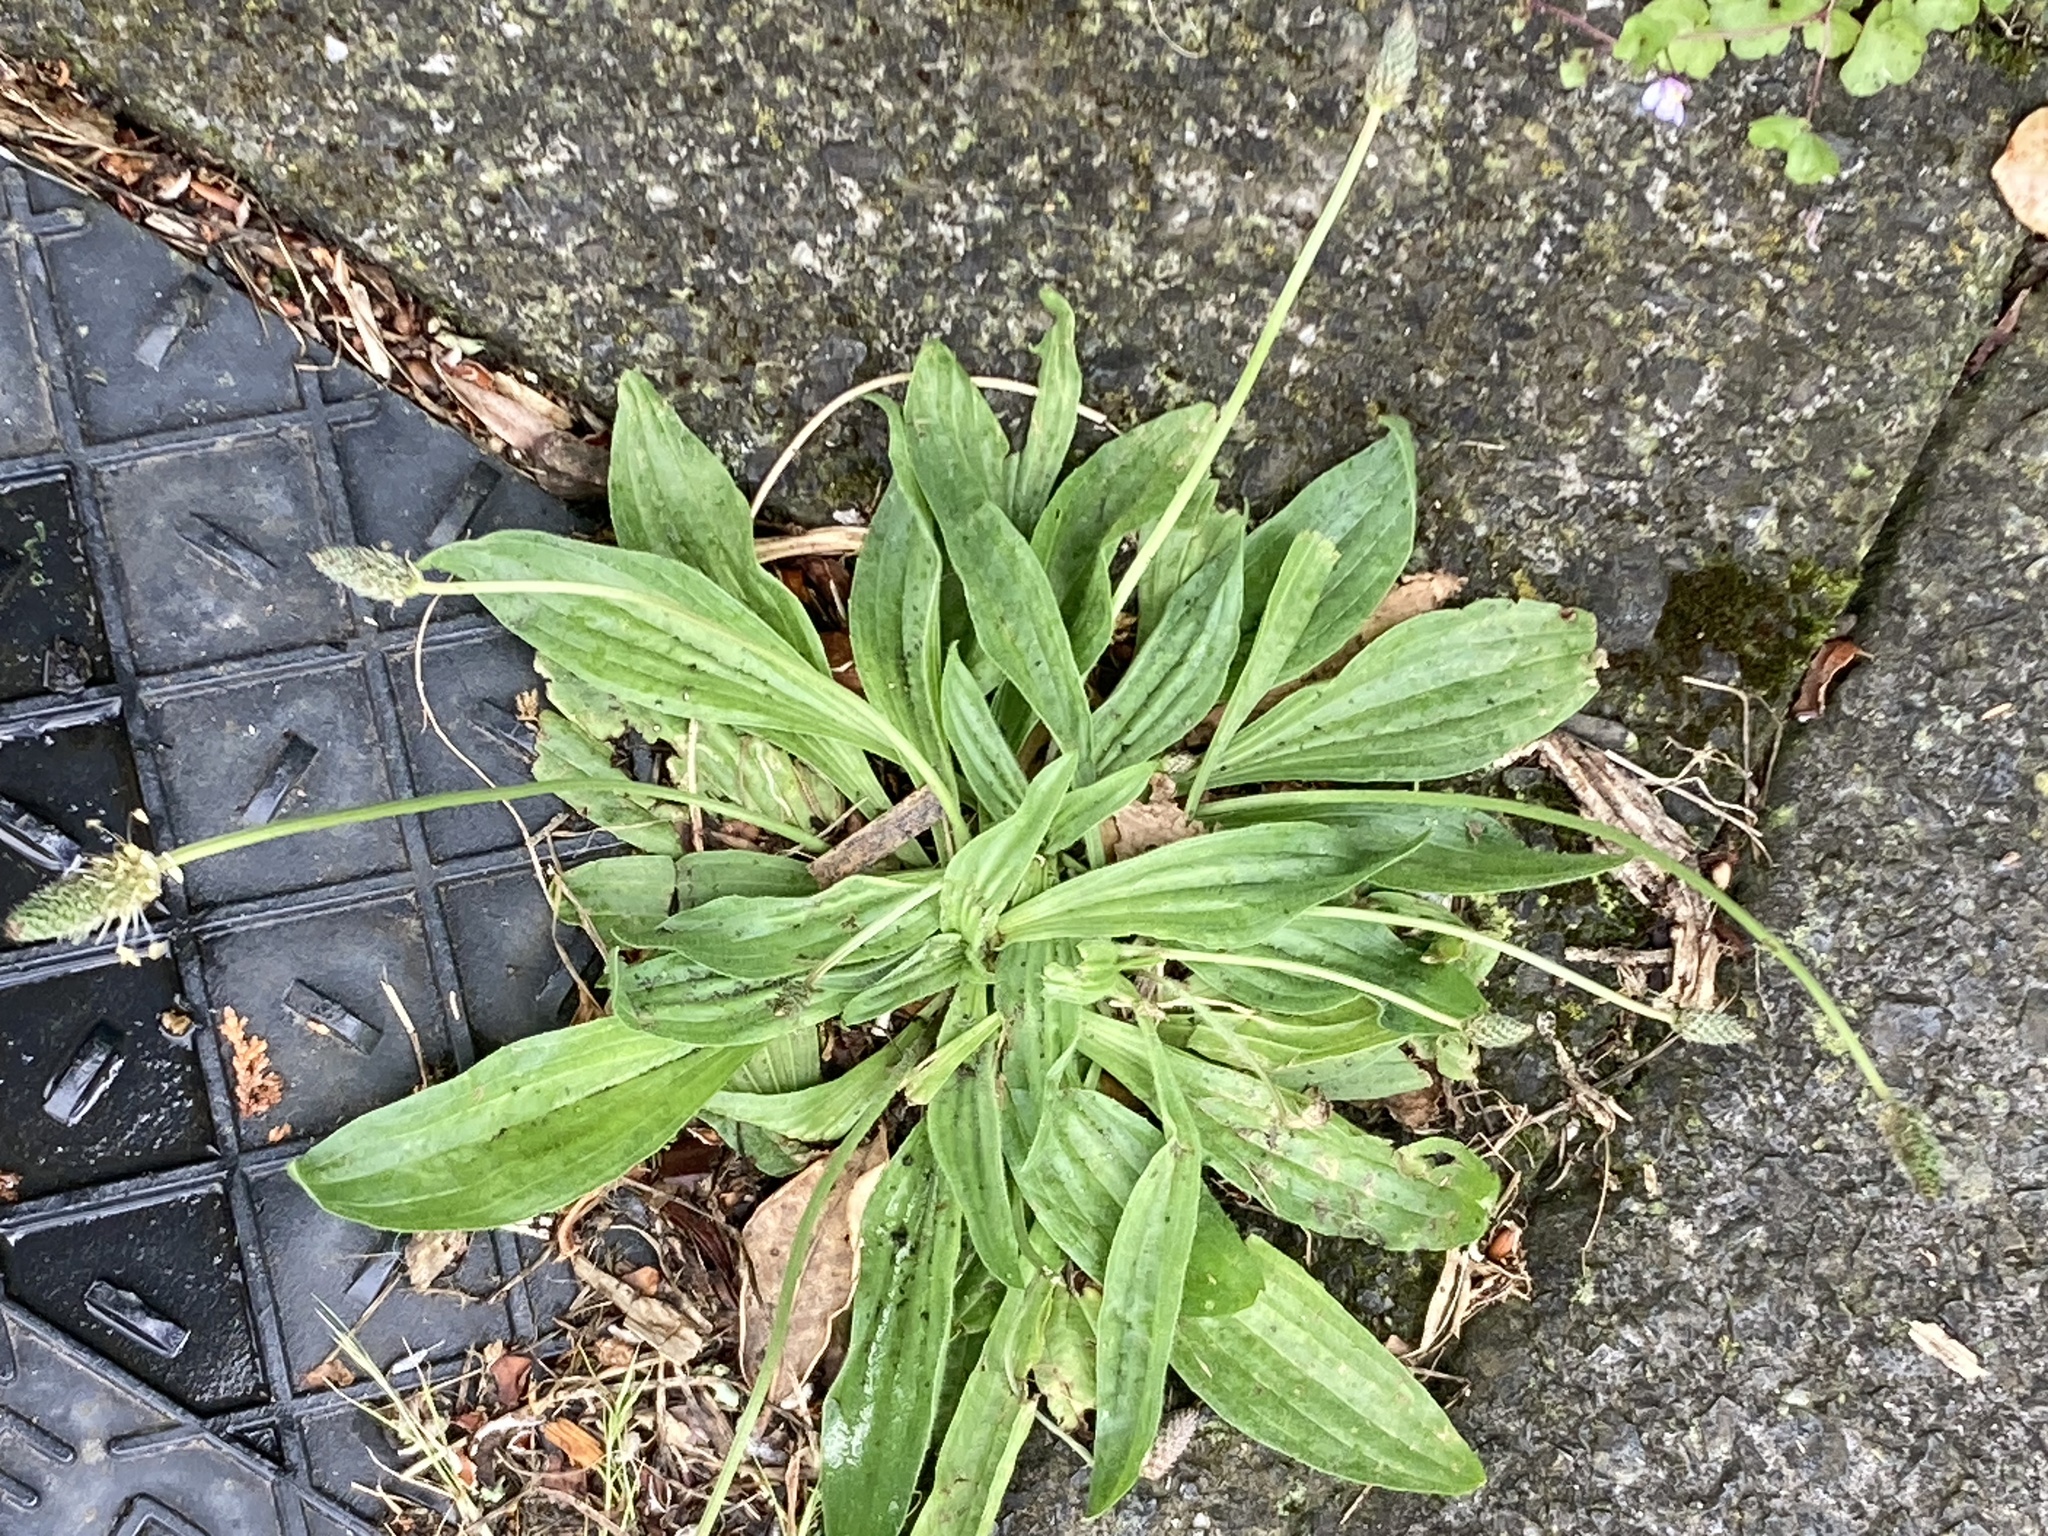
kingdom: Plantae
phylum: Tracheophyta
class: Magnoliopsida
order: Lamiales
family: Plantaginaceae
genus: Plantago
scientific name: Plantago lanceolata
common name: Ribwort plantain
